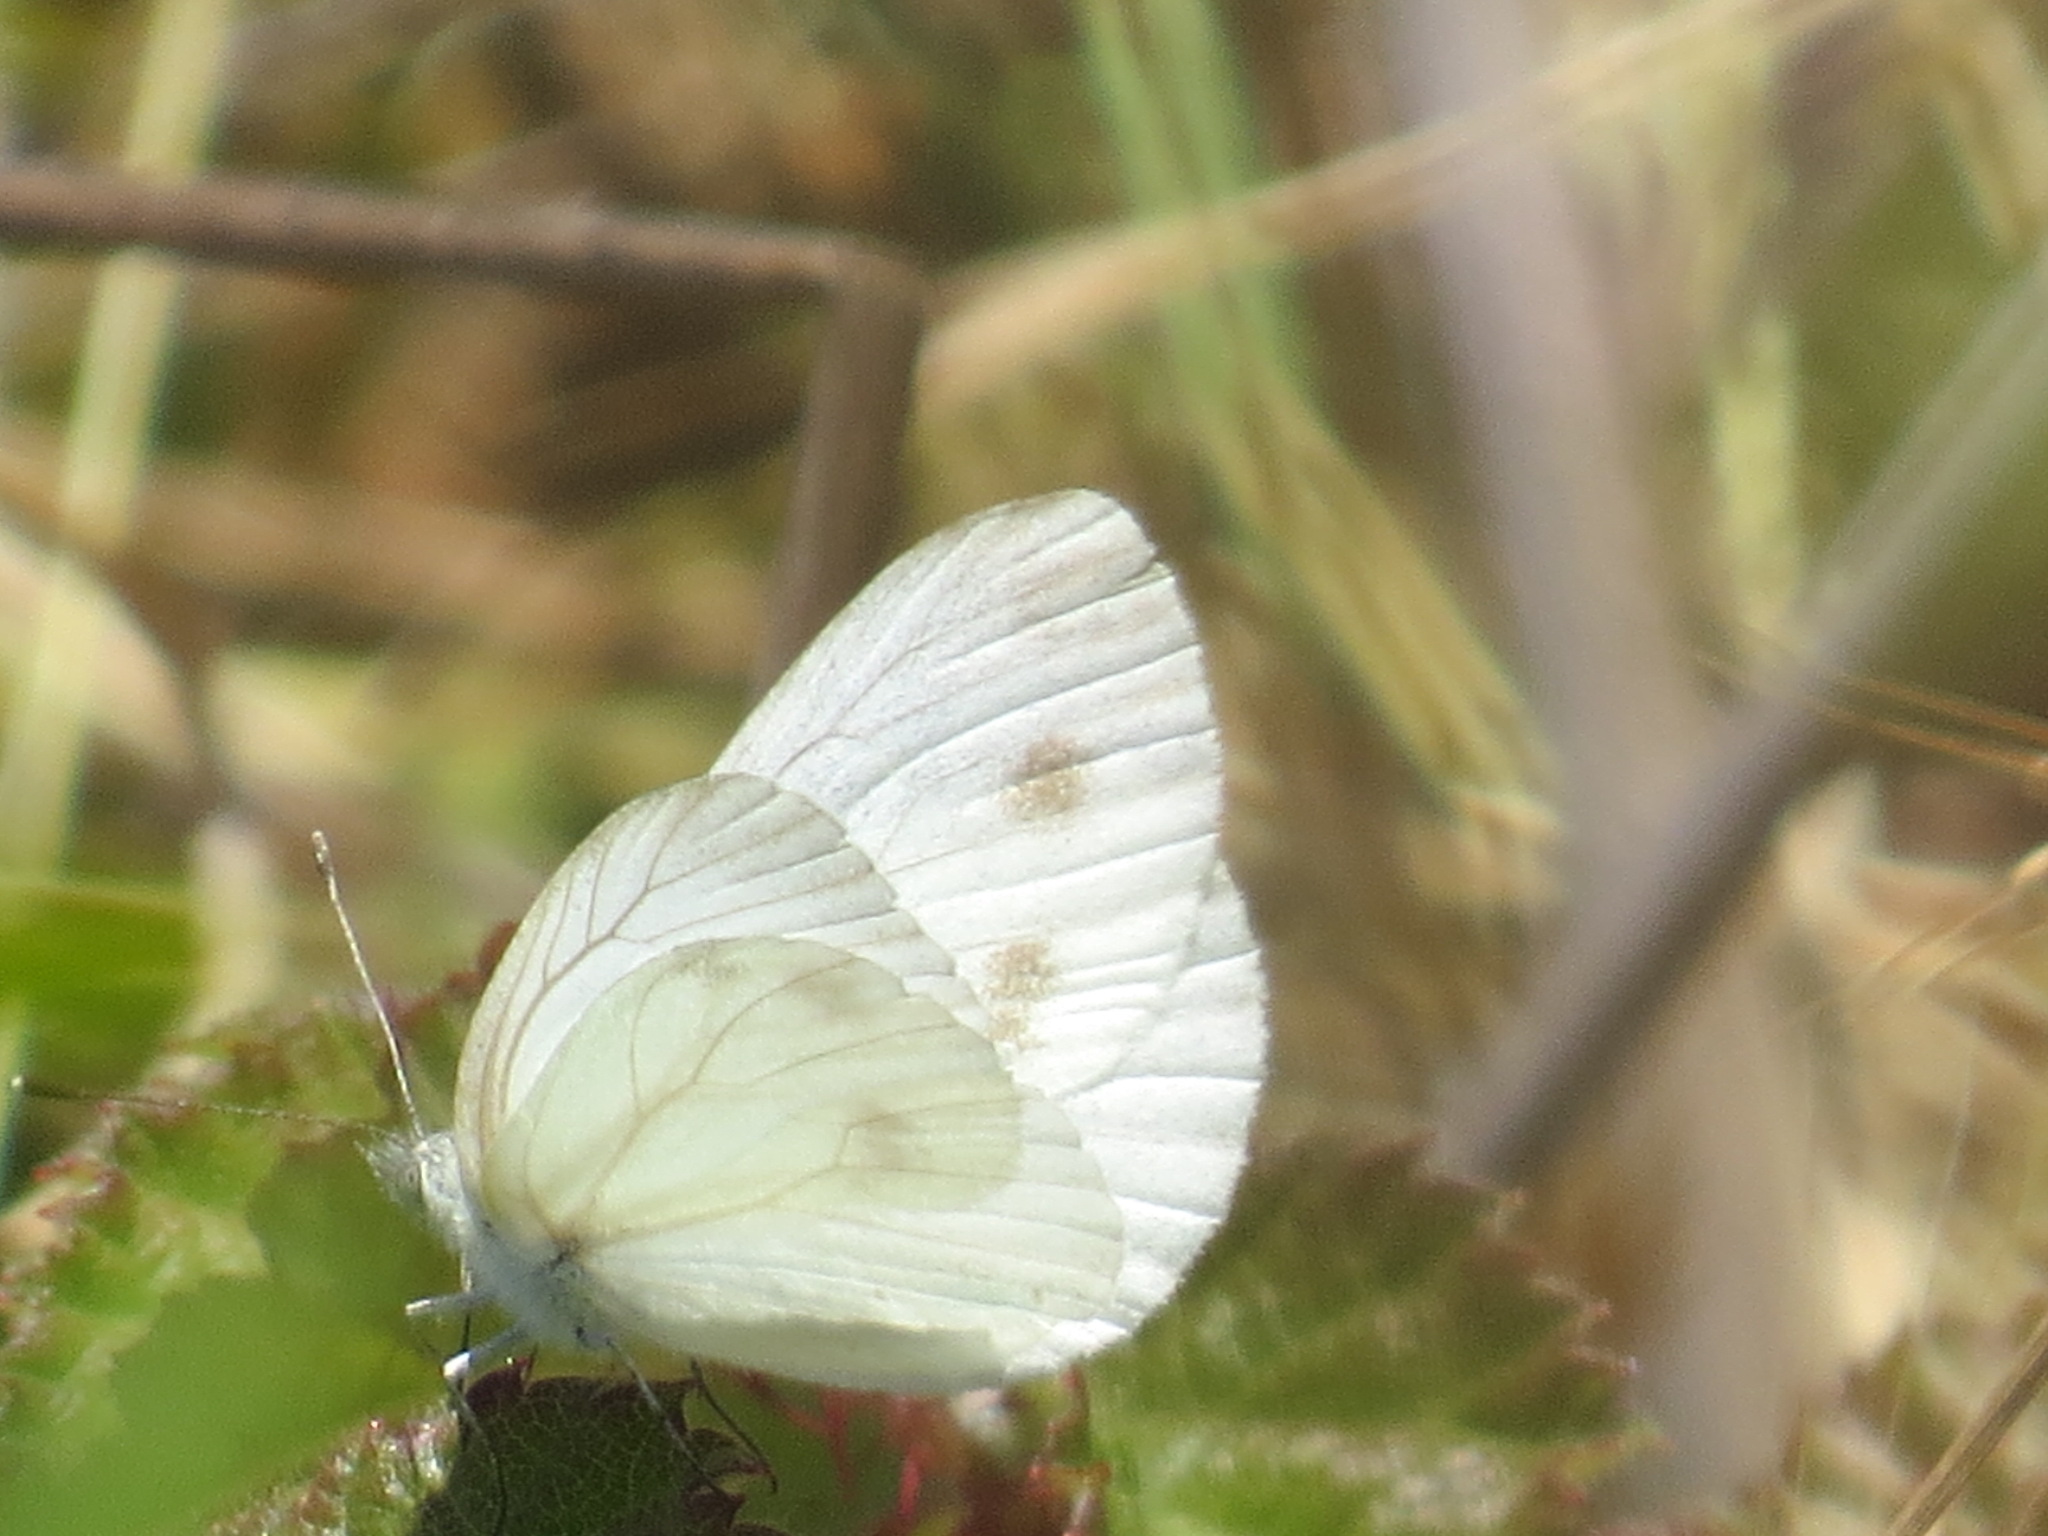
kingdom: Animalia
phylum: Arthropoda
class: Insecta
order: Lepidoptera
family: Pieridae
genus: Pieris
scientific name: Pieris marginalis
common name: Margined white
